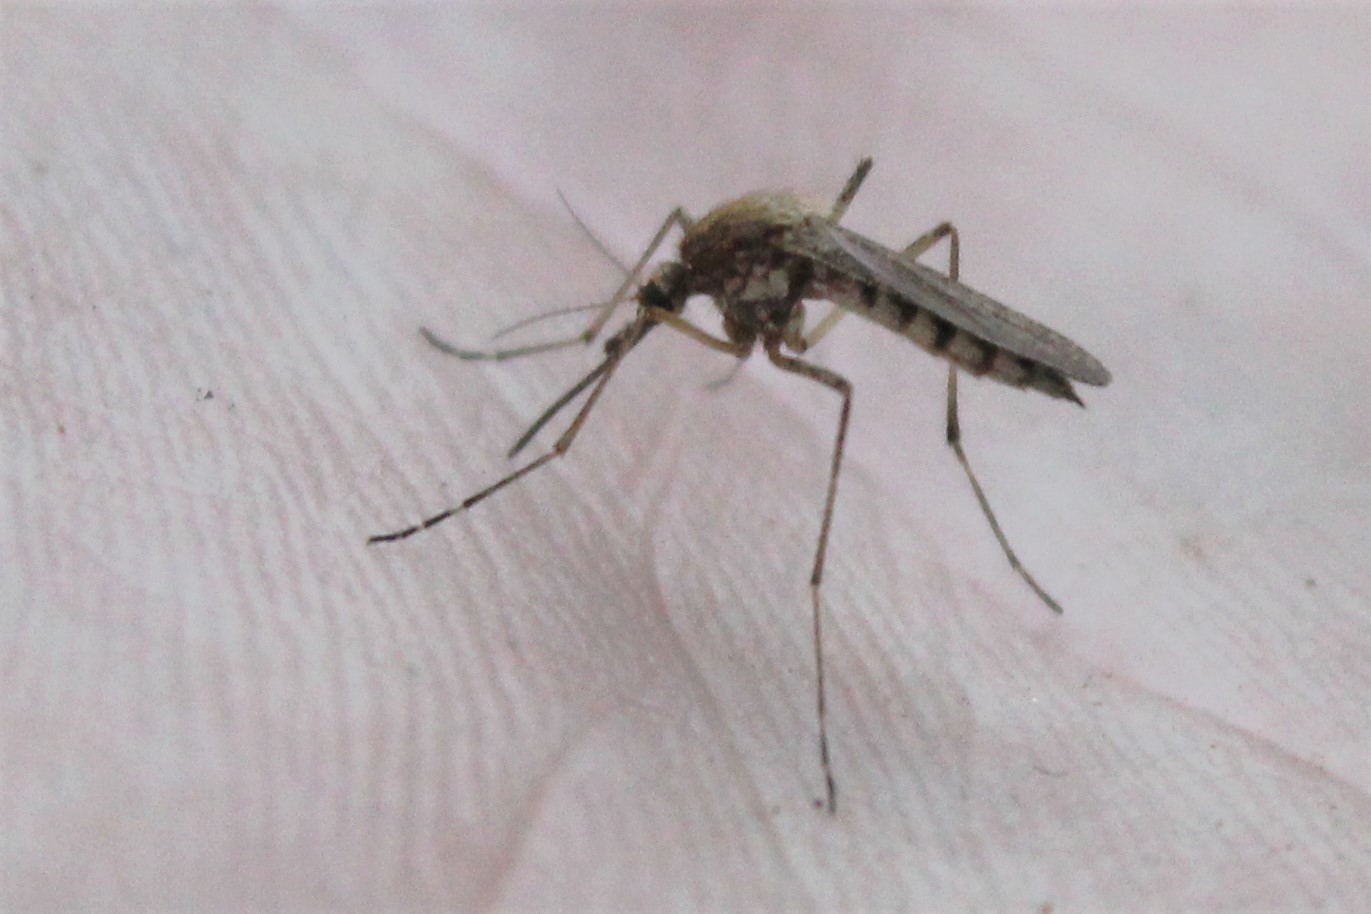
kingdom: Animalia
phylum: Arthropoda
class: Insecta
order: Diptera
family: Culicidae
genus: Aedes
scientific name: Aedes vexans
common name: Inland floodwater mosquito
